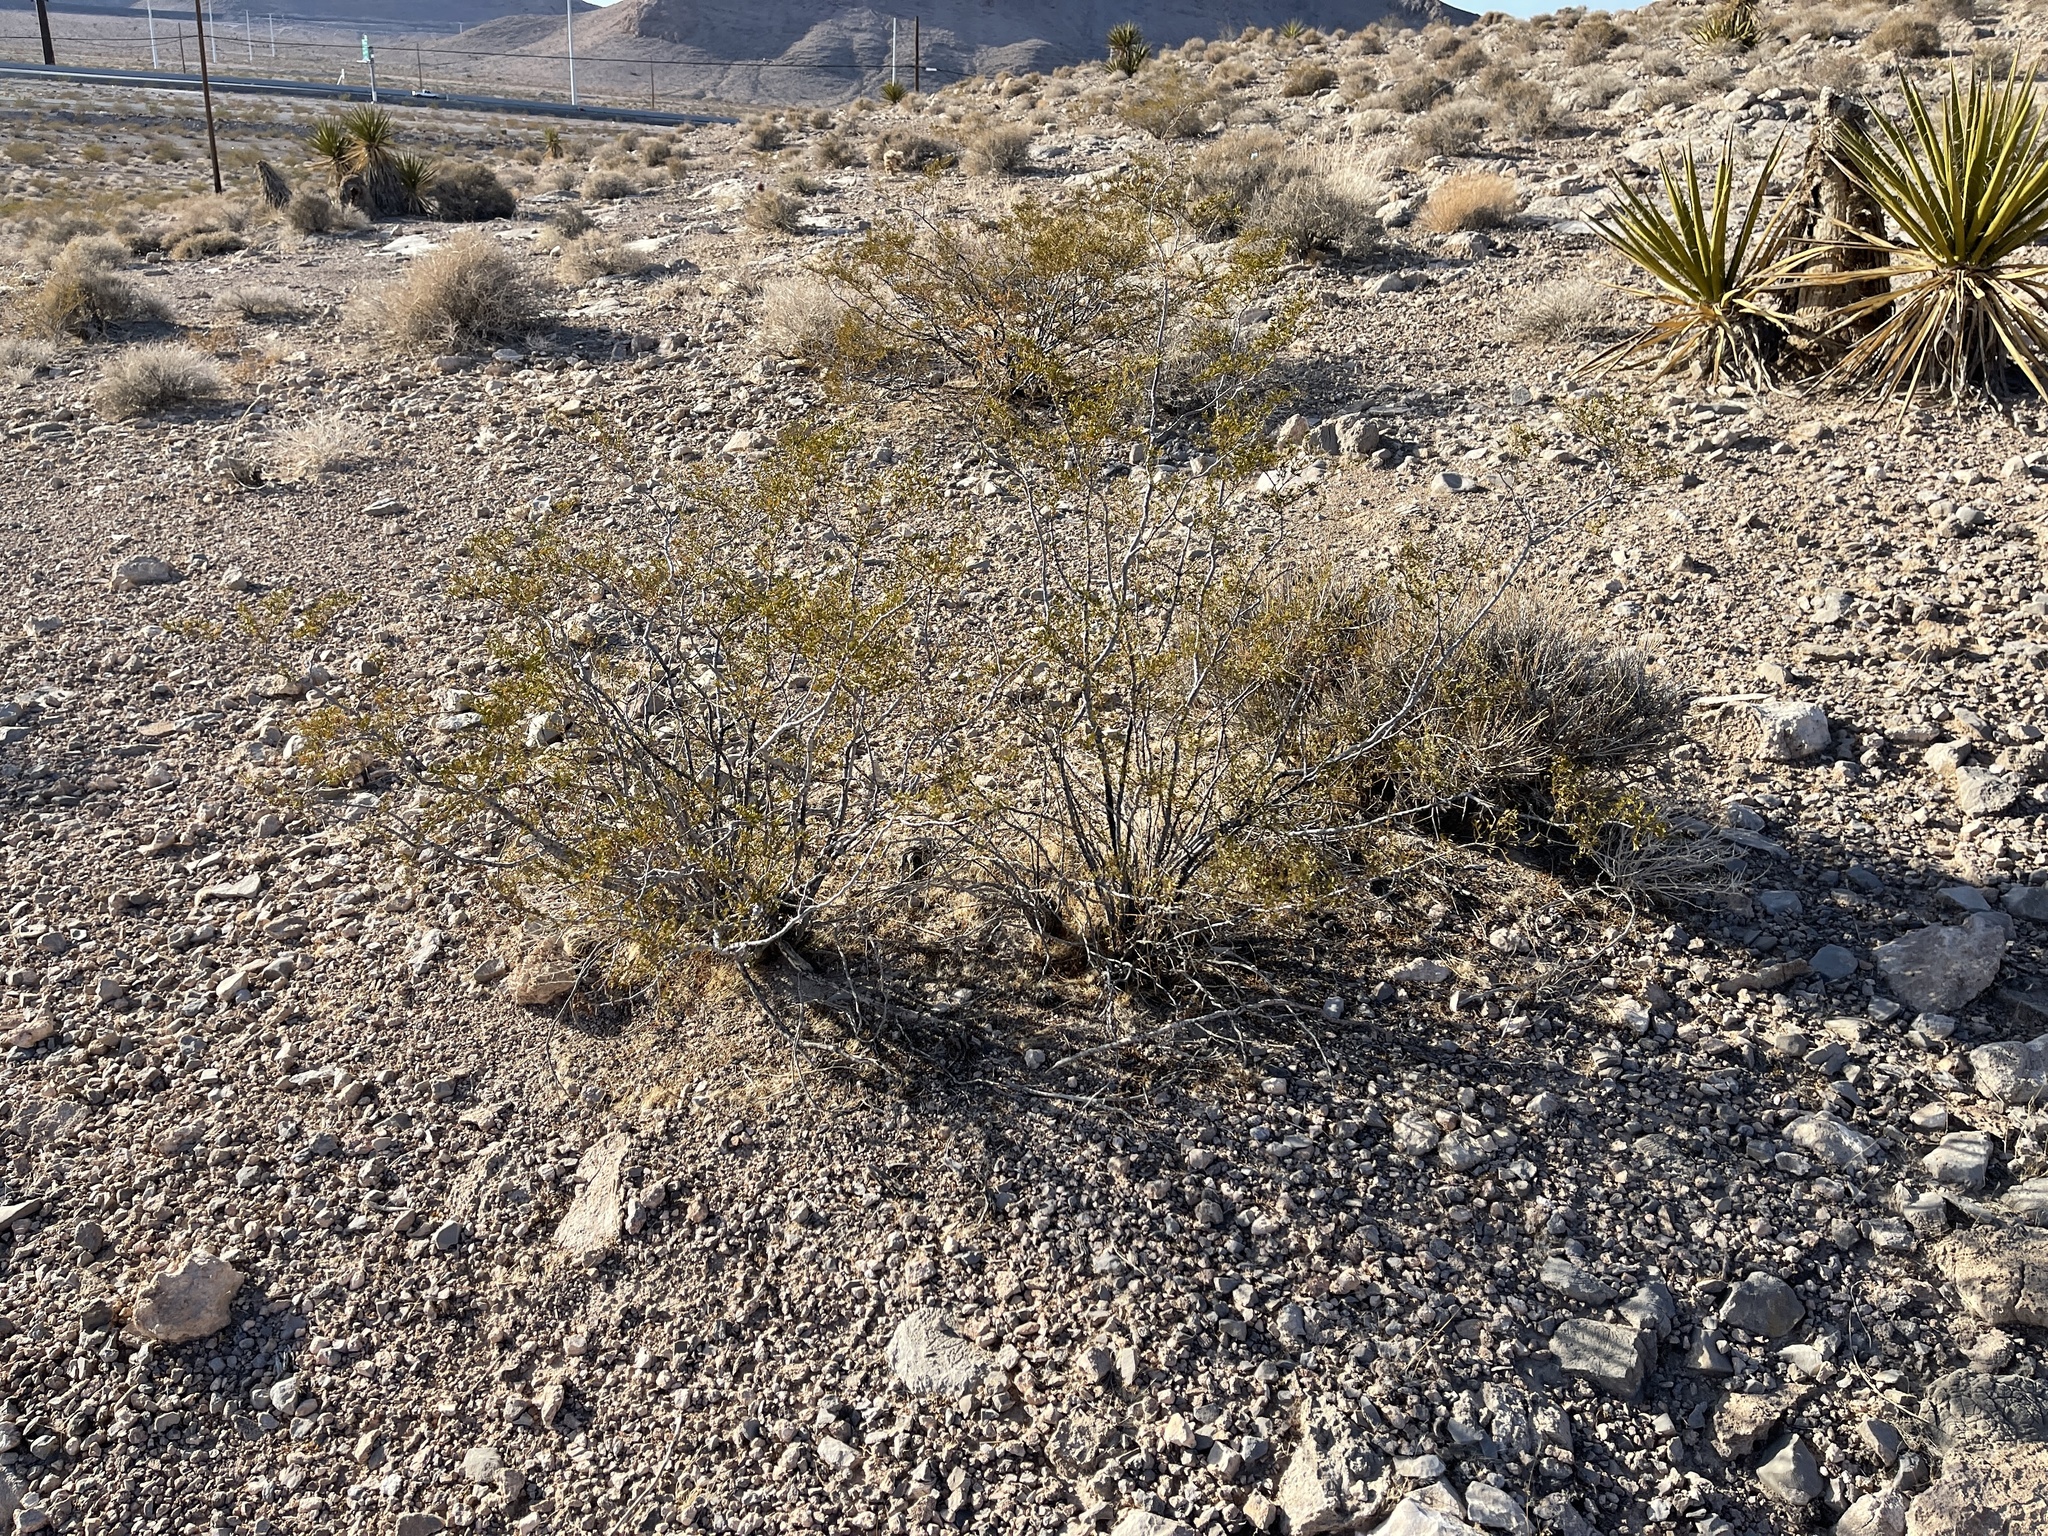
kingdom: Plantae
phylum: Tracheophyta
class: Magnoliopsida
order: Zygophyllales
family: Zygophyllaceae
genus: Larrea
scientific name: Larrea tridentata
